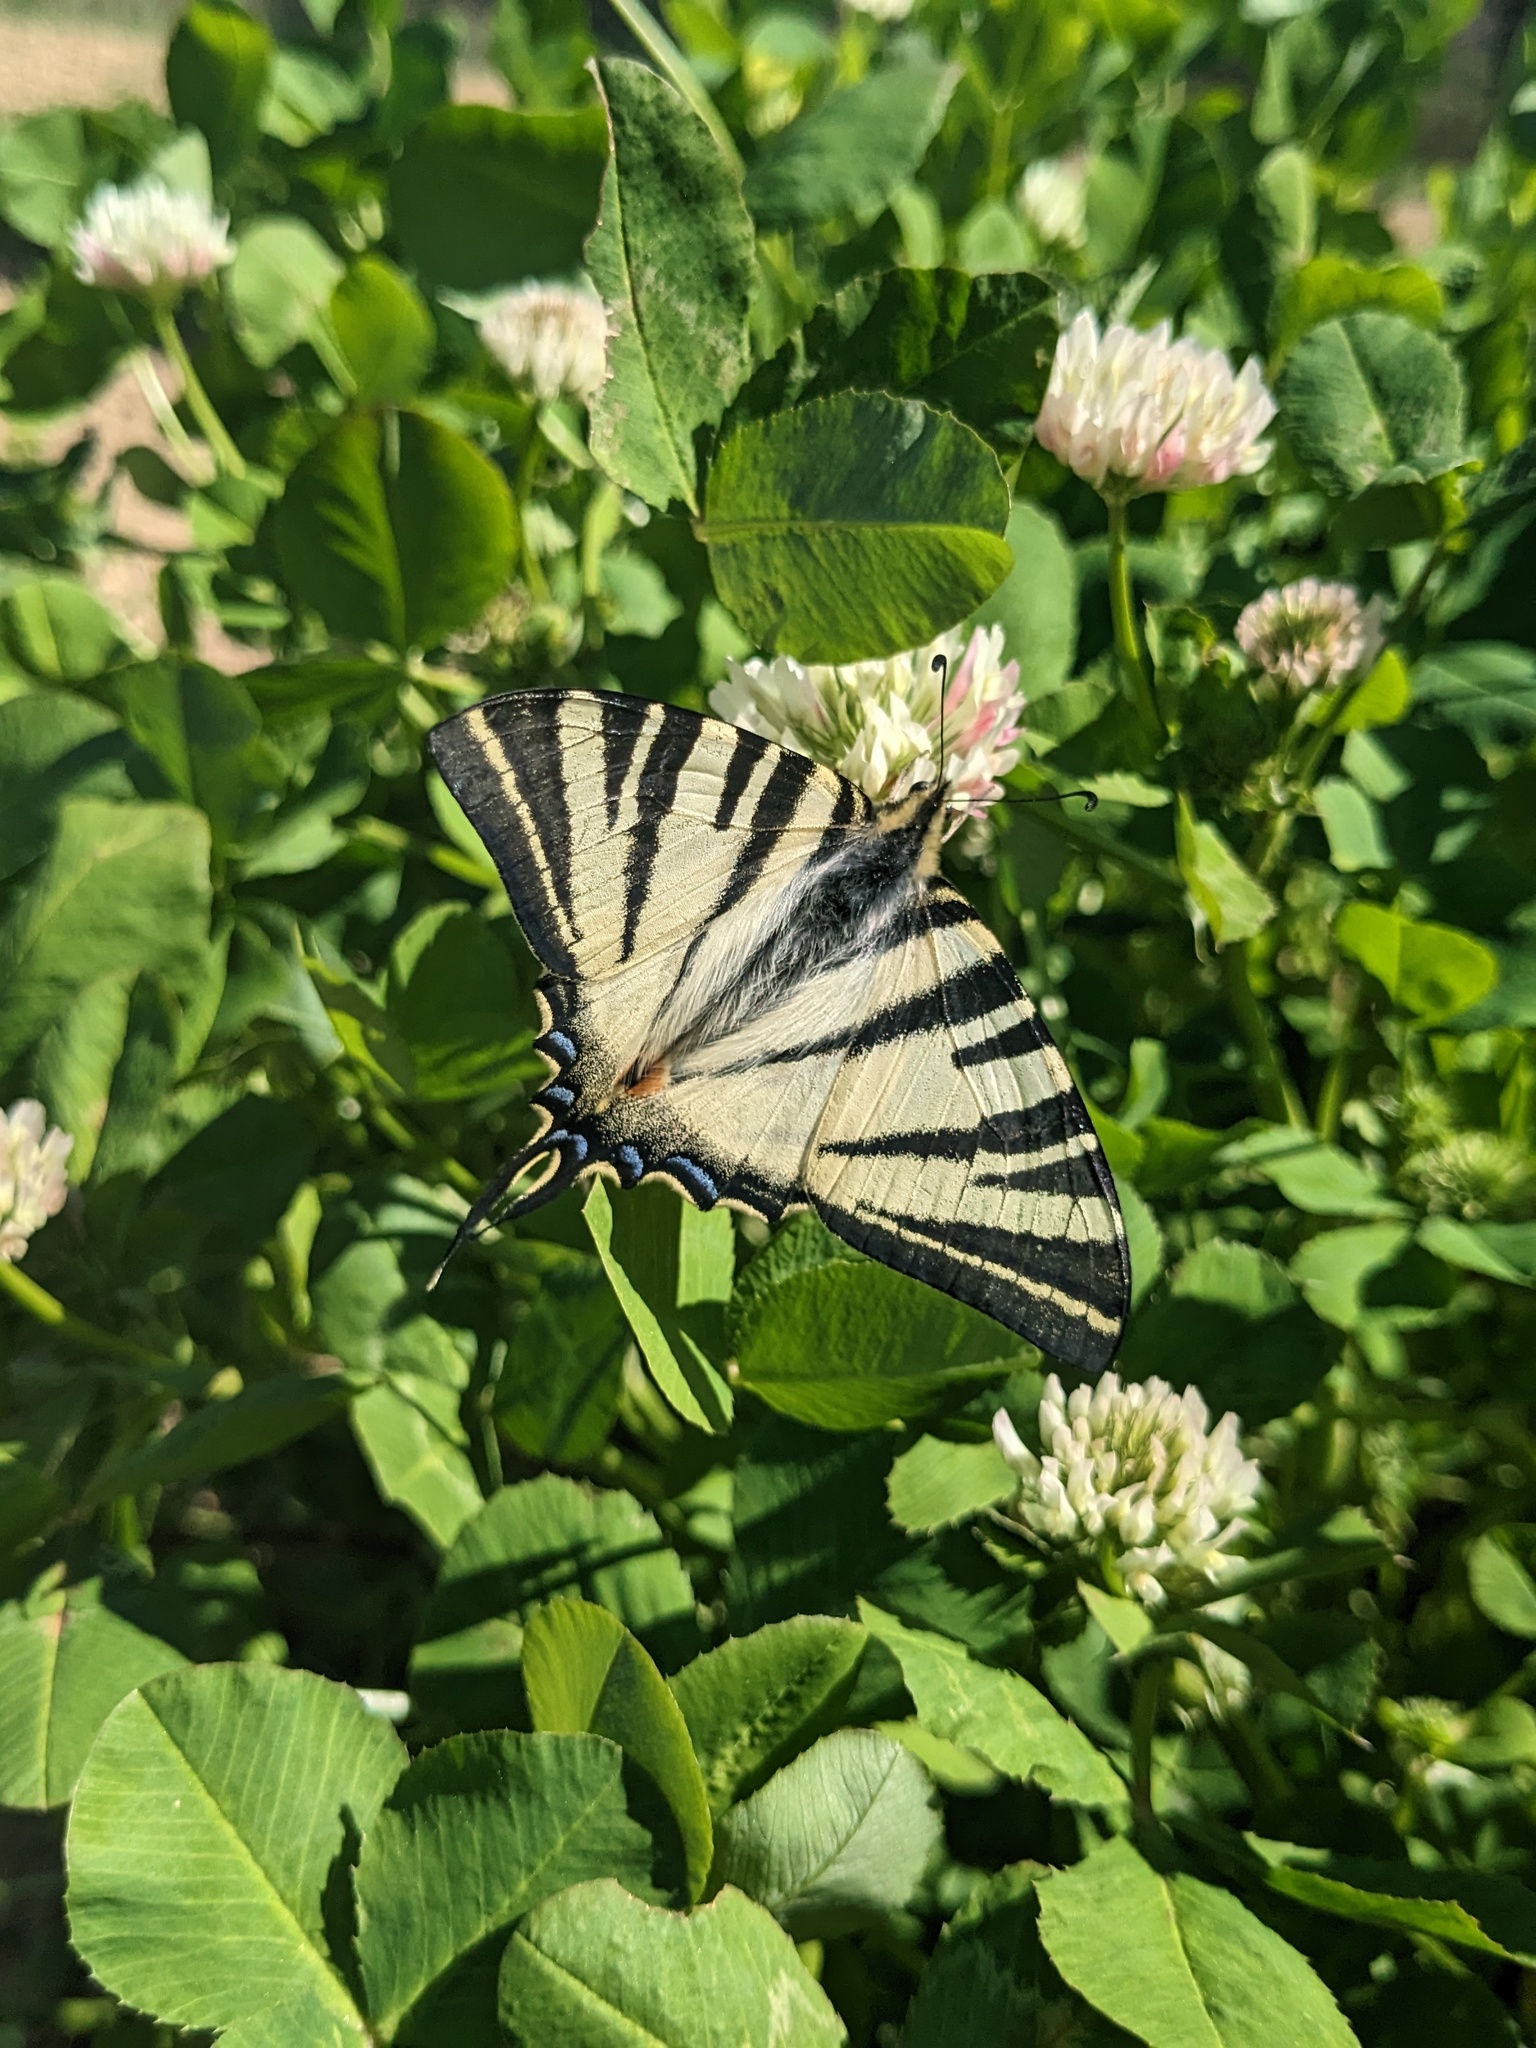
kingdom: Animalia
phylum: Arthropoda
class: Insecta
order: Lepidoptera
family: Papilionidae
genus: Iphiclides
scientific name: Iphiclides podalirius
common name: Scarce swallowtail
